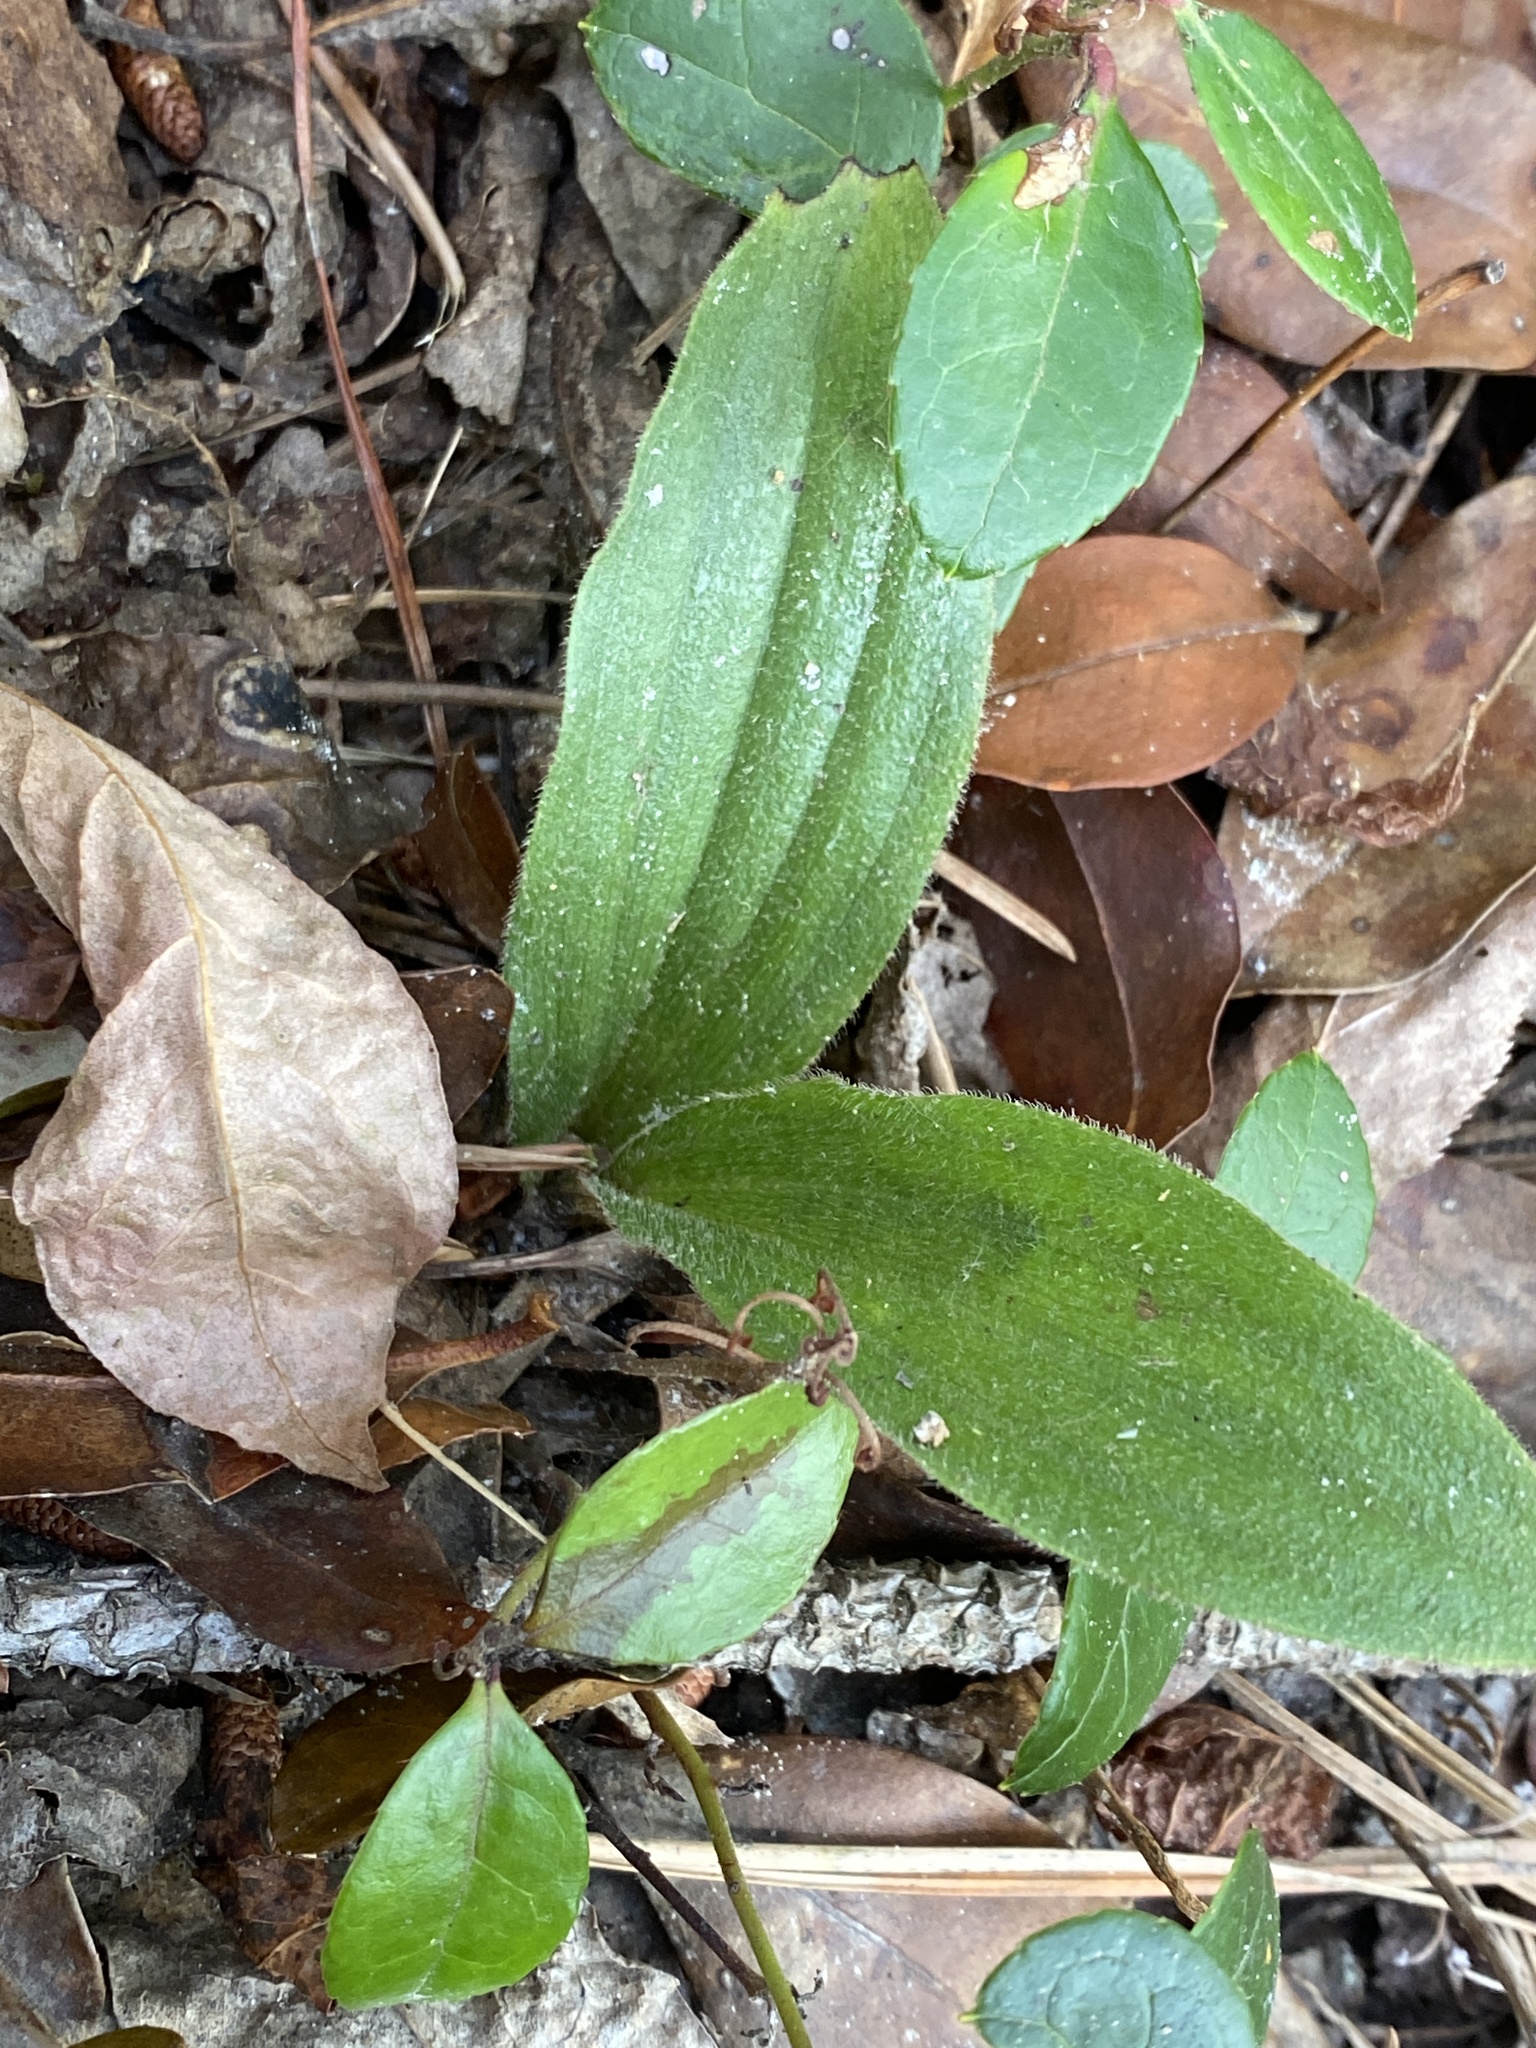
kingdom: Plantae
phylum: Tracheophyta
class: Liliopsida
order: Asparagales
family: Orchidaceae
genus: Cypripedium
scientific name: Cypripedium acaule
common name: Pink lady's-slipper
